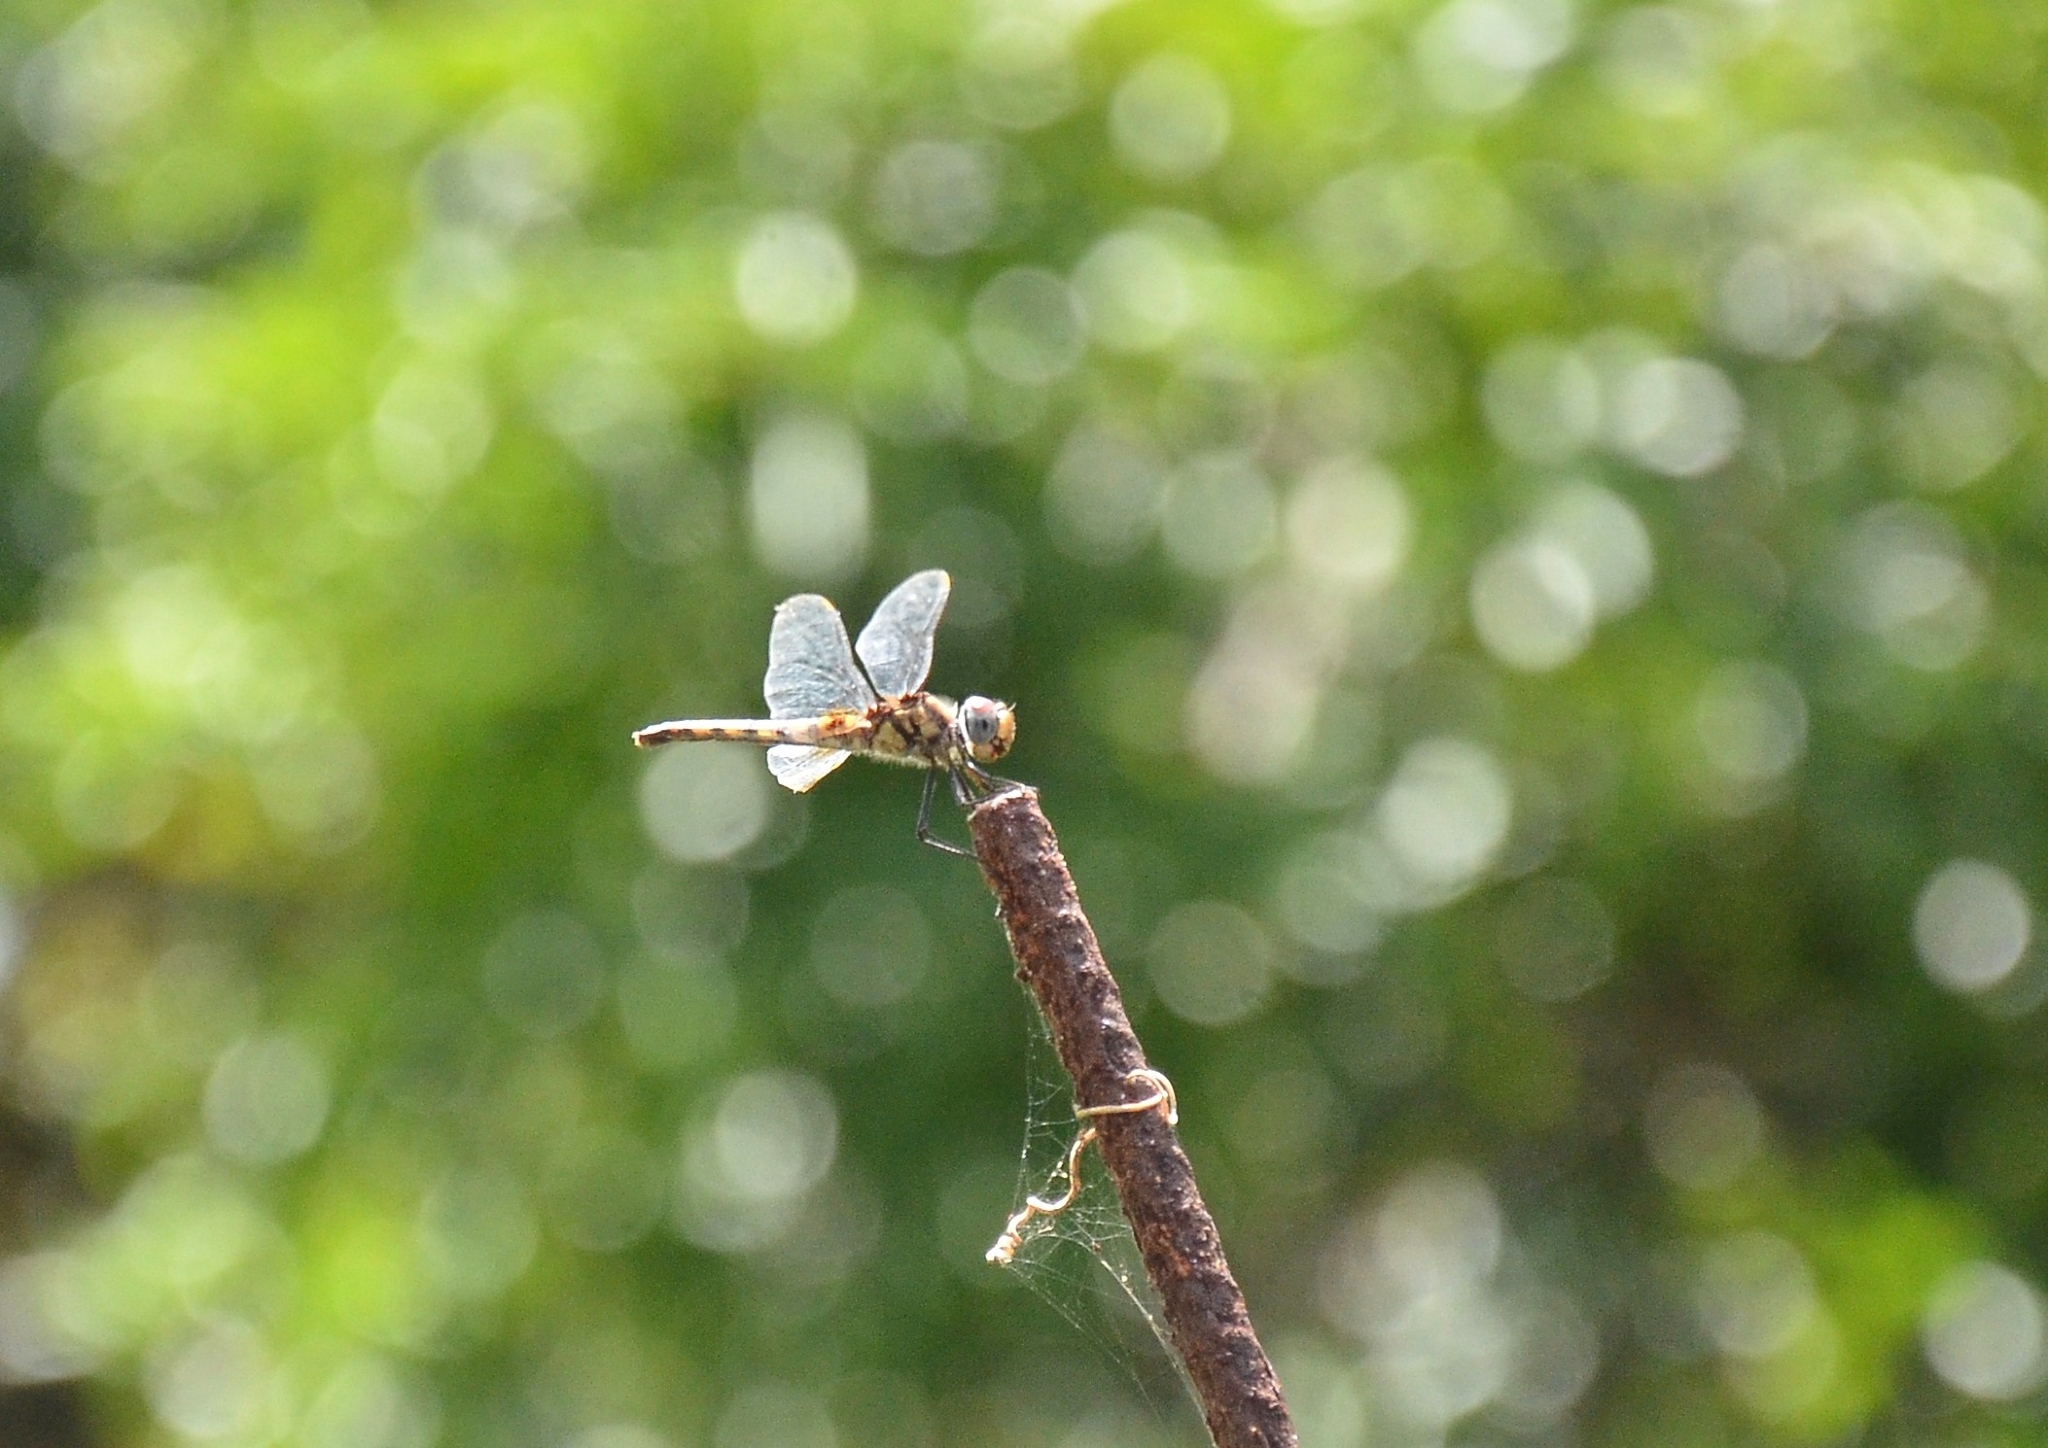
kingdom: Animalia
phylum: Arthropoda
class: Insecta
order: Odonata
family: Libellulidae
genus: Urothemis
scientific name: Urothemis signata
